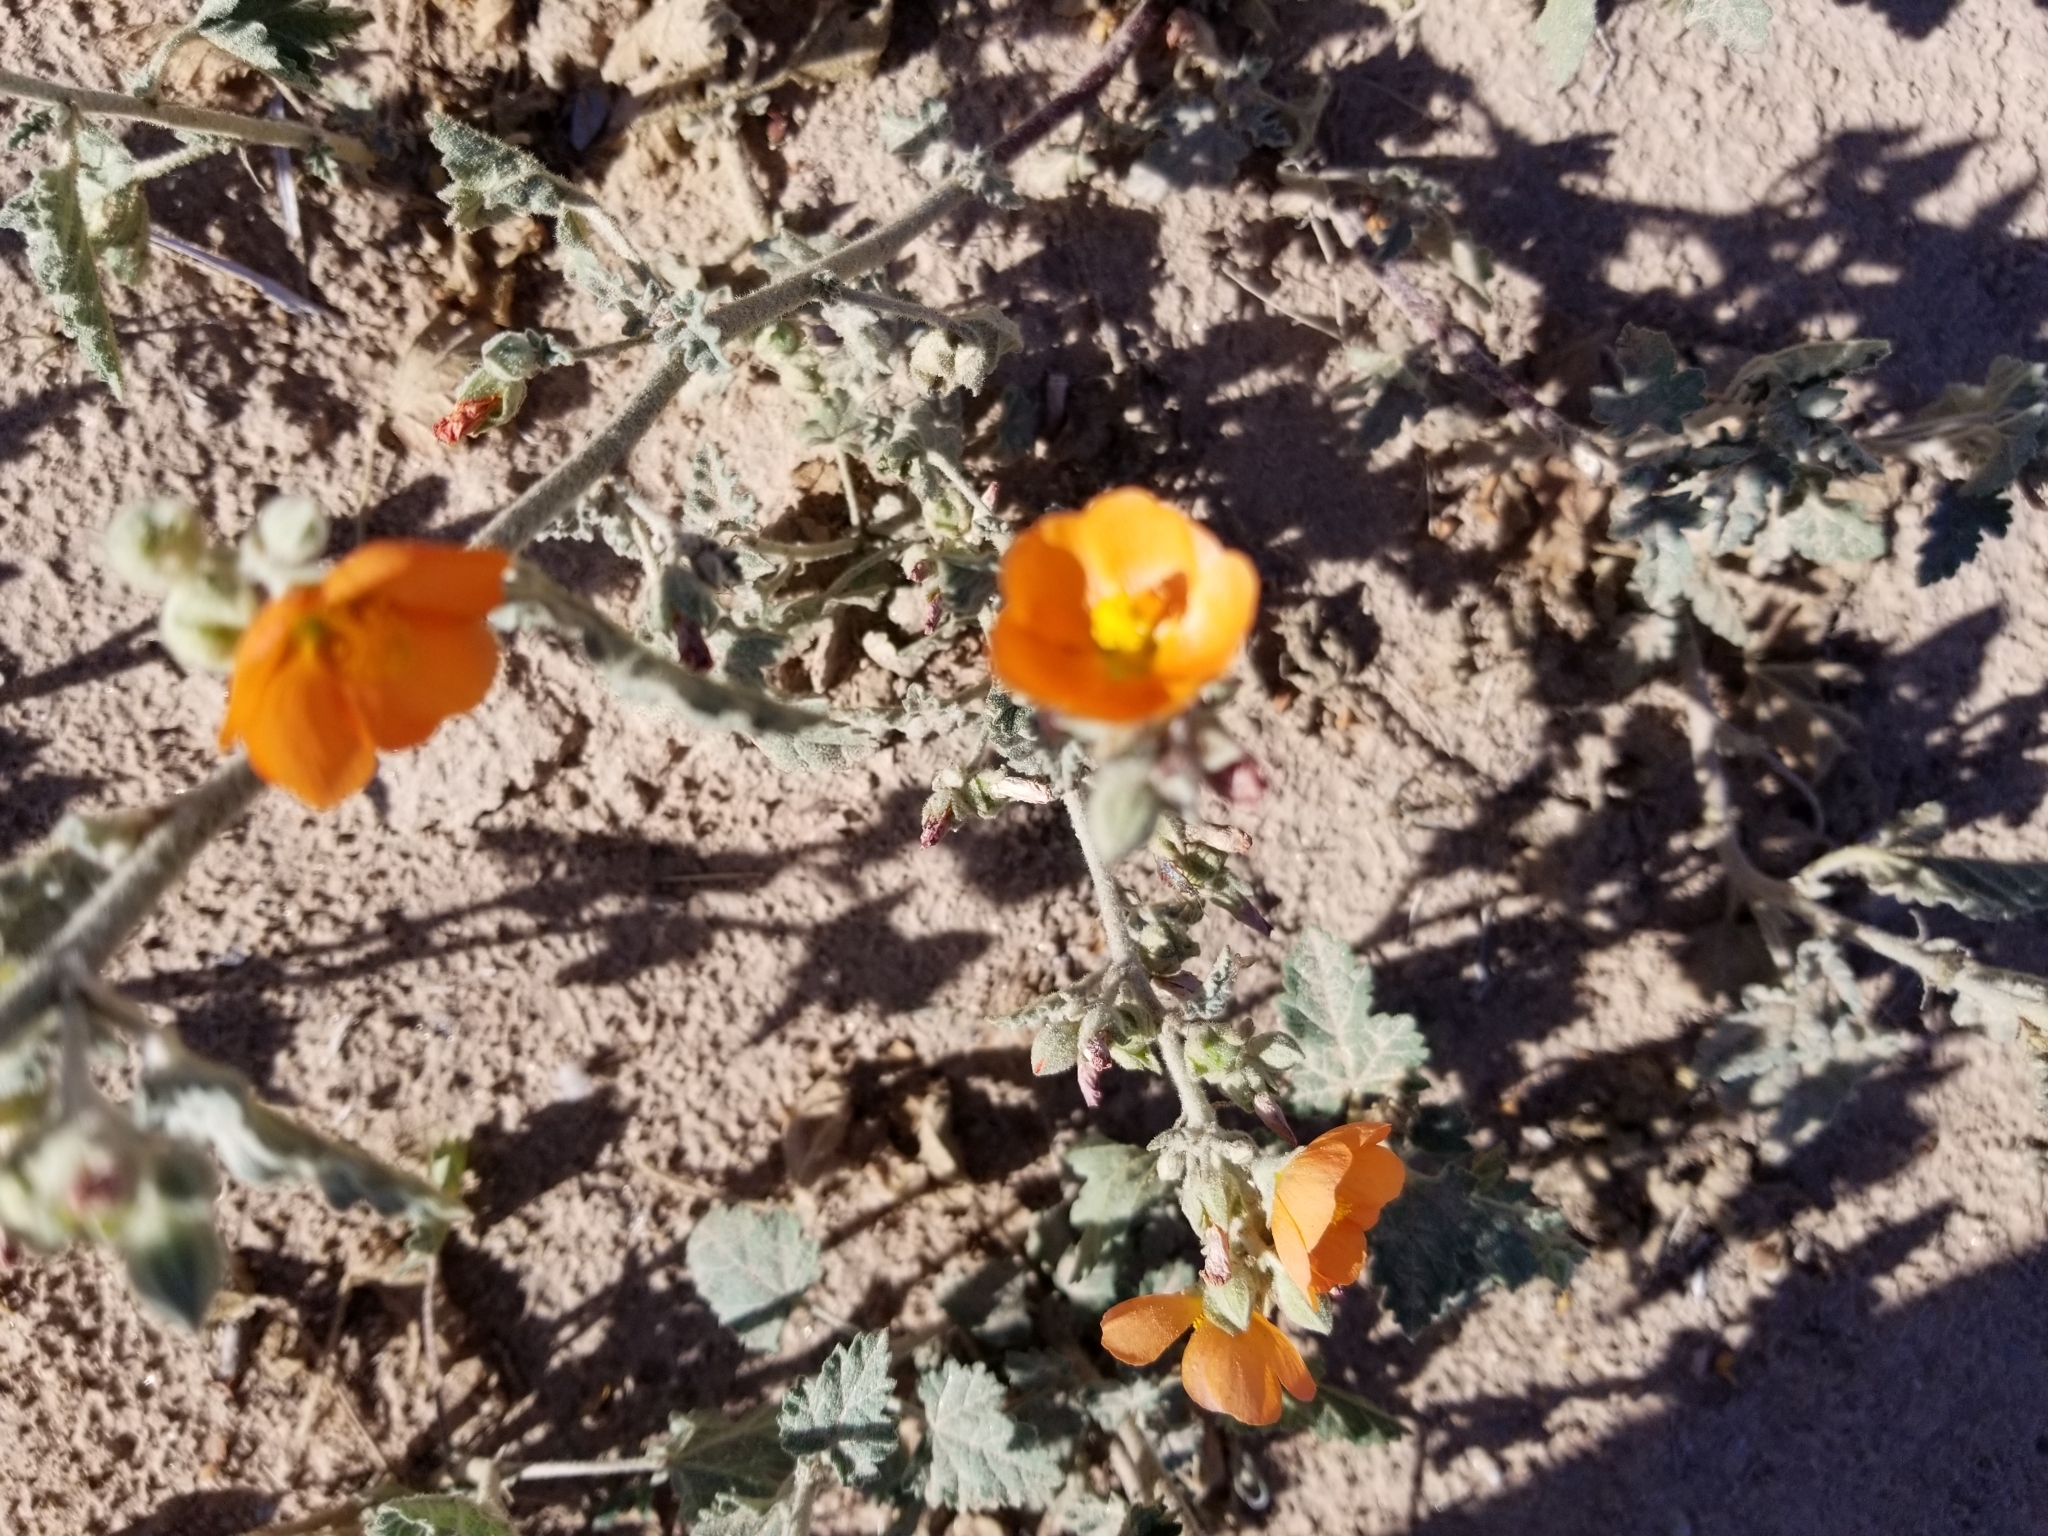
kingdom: Plantae
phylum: Tracheophyta
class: Magnoliopsida
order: Malvales
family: Malvaceae
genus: Sphaeralcea
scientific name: Sphaeralcea ambigua
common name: Apricot globe-mallow
